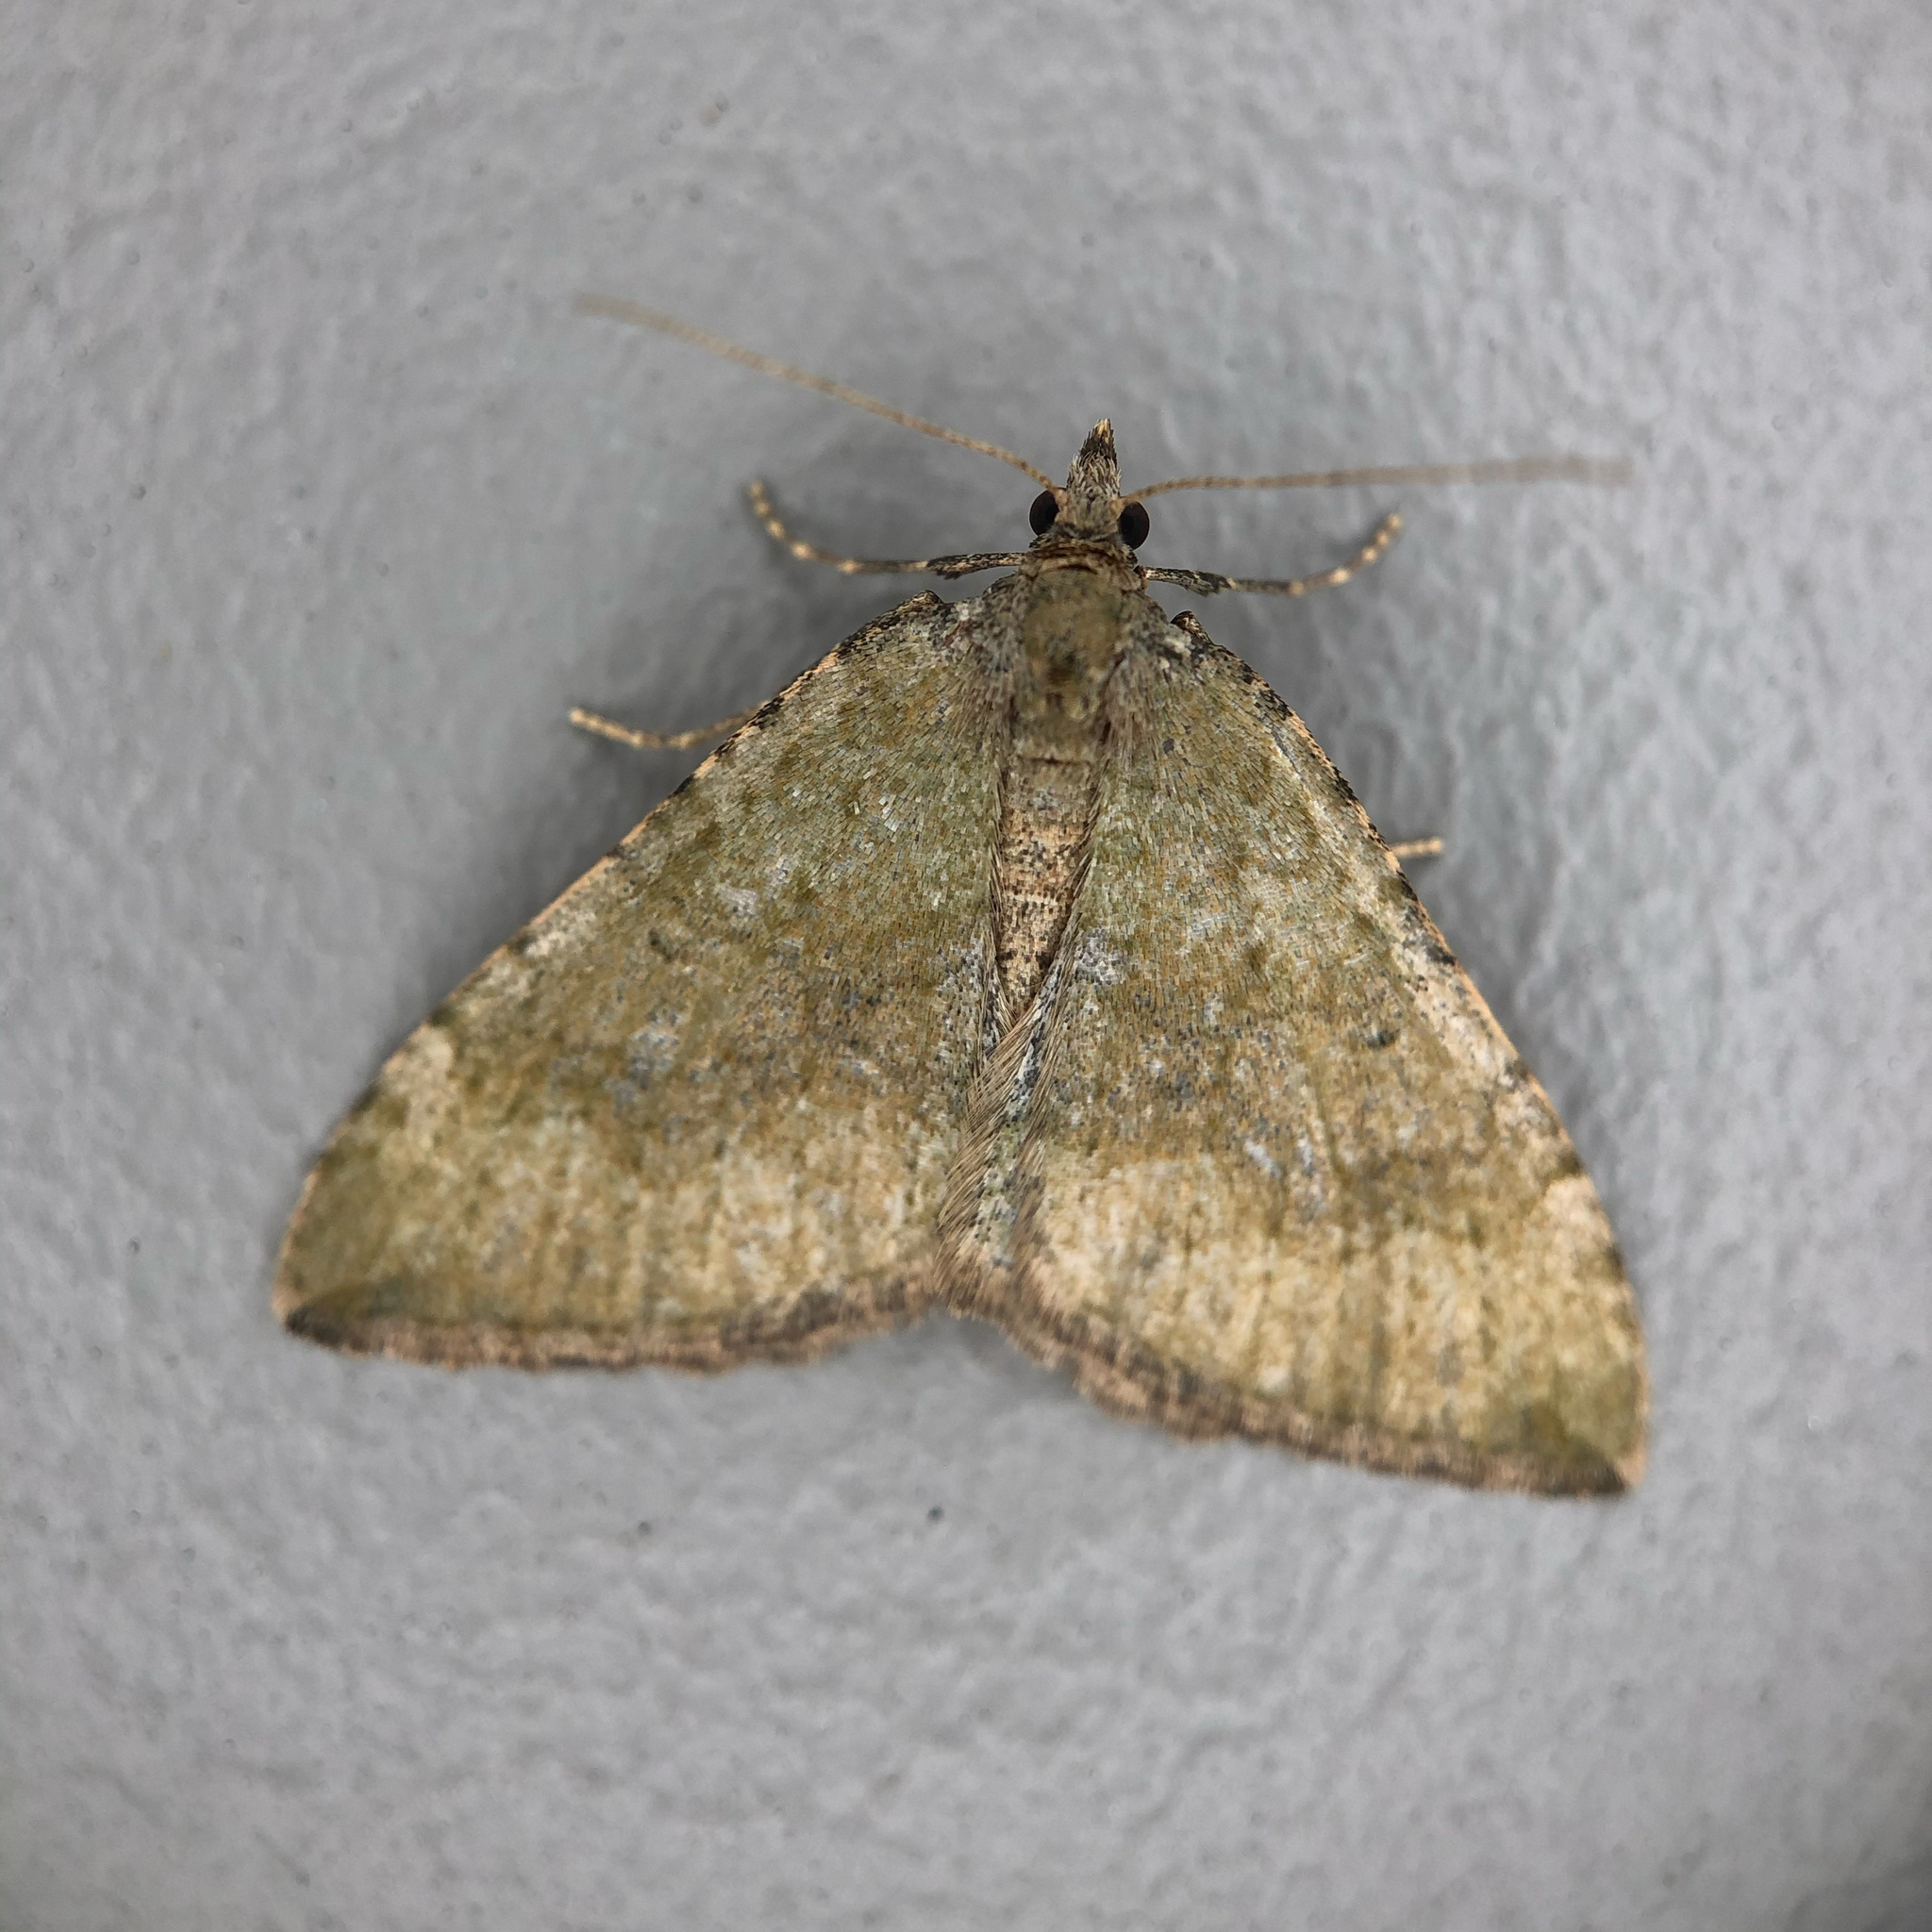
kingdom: Animalia
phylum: Arthropoda
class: Insecta
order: Lepidoptera
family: Geometridae
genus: Epyaxa
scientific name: Epyaxa rosearia
